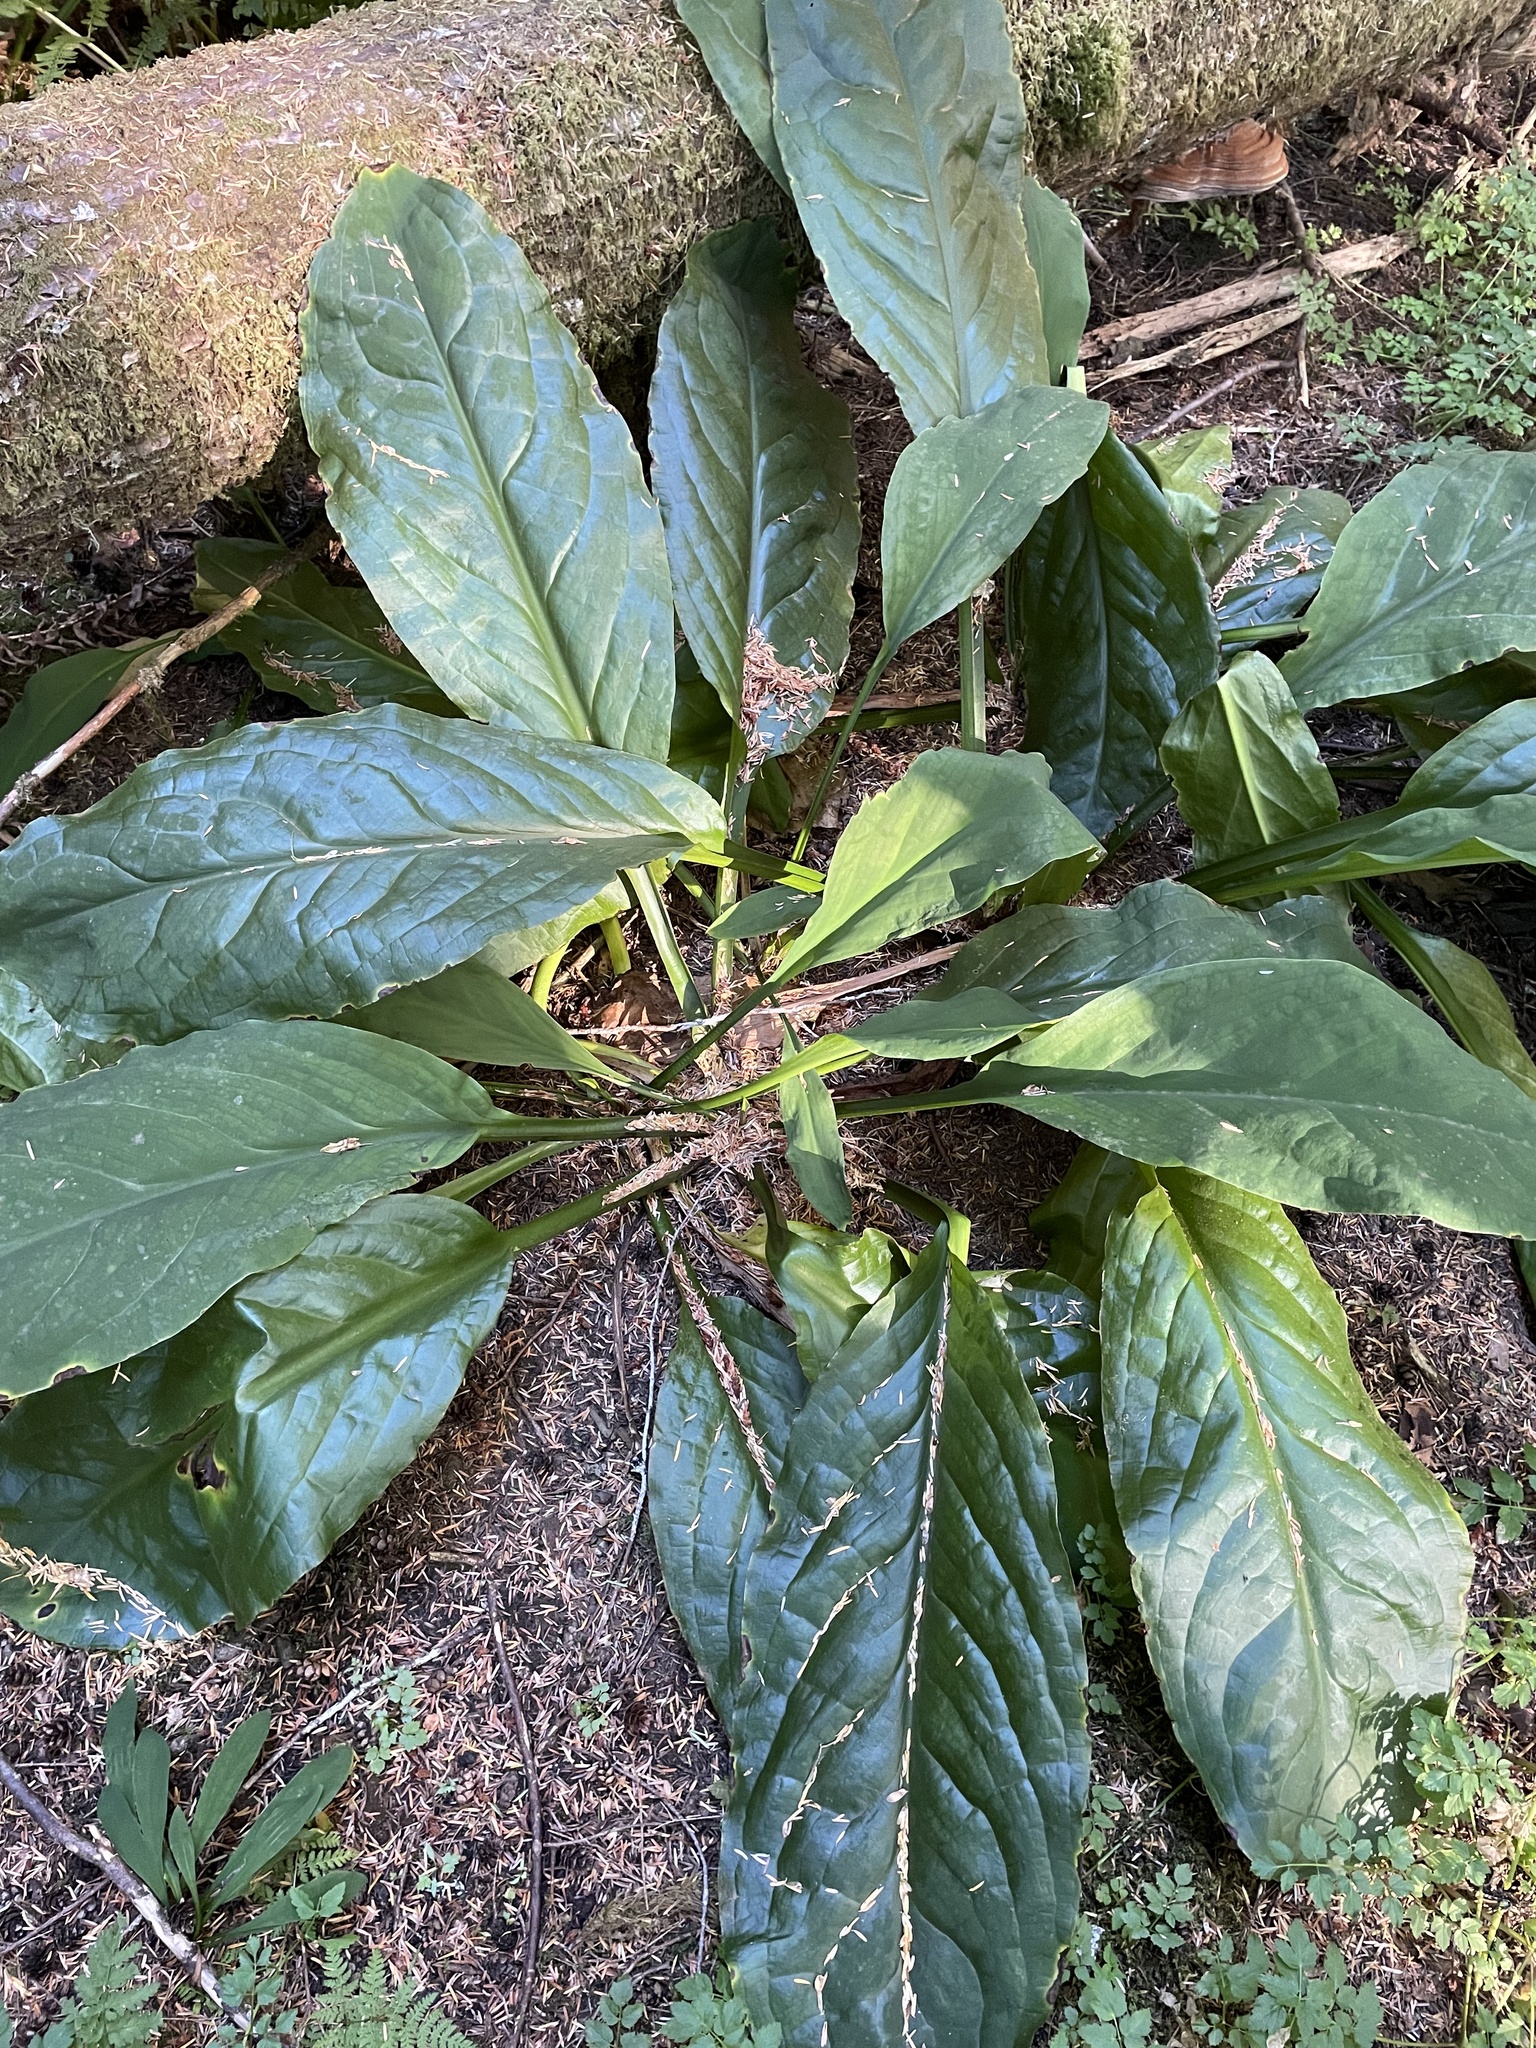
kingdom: Plantae
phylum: Tracheophyta
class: Liliopsida
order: Alismatales
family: Araceae
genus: Lysichiton
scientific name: Lysichiton americanus
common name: American skunk cabbage
